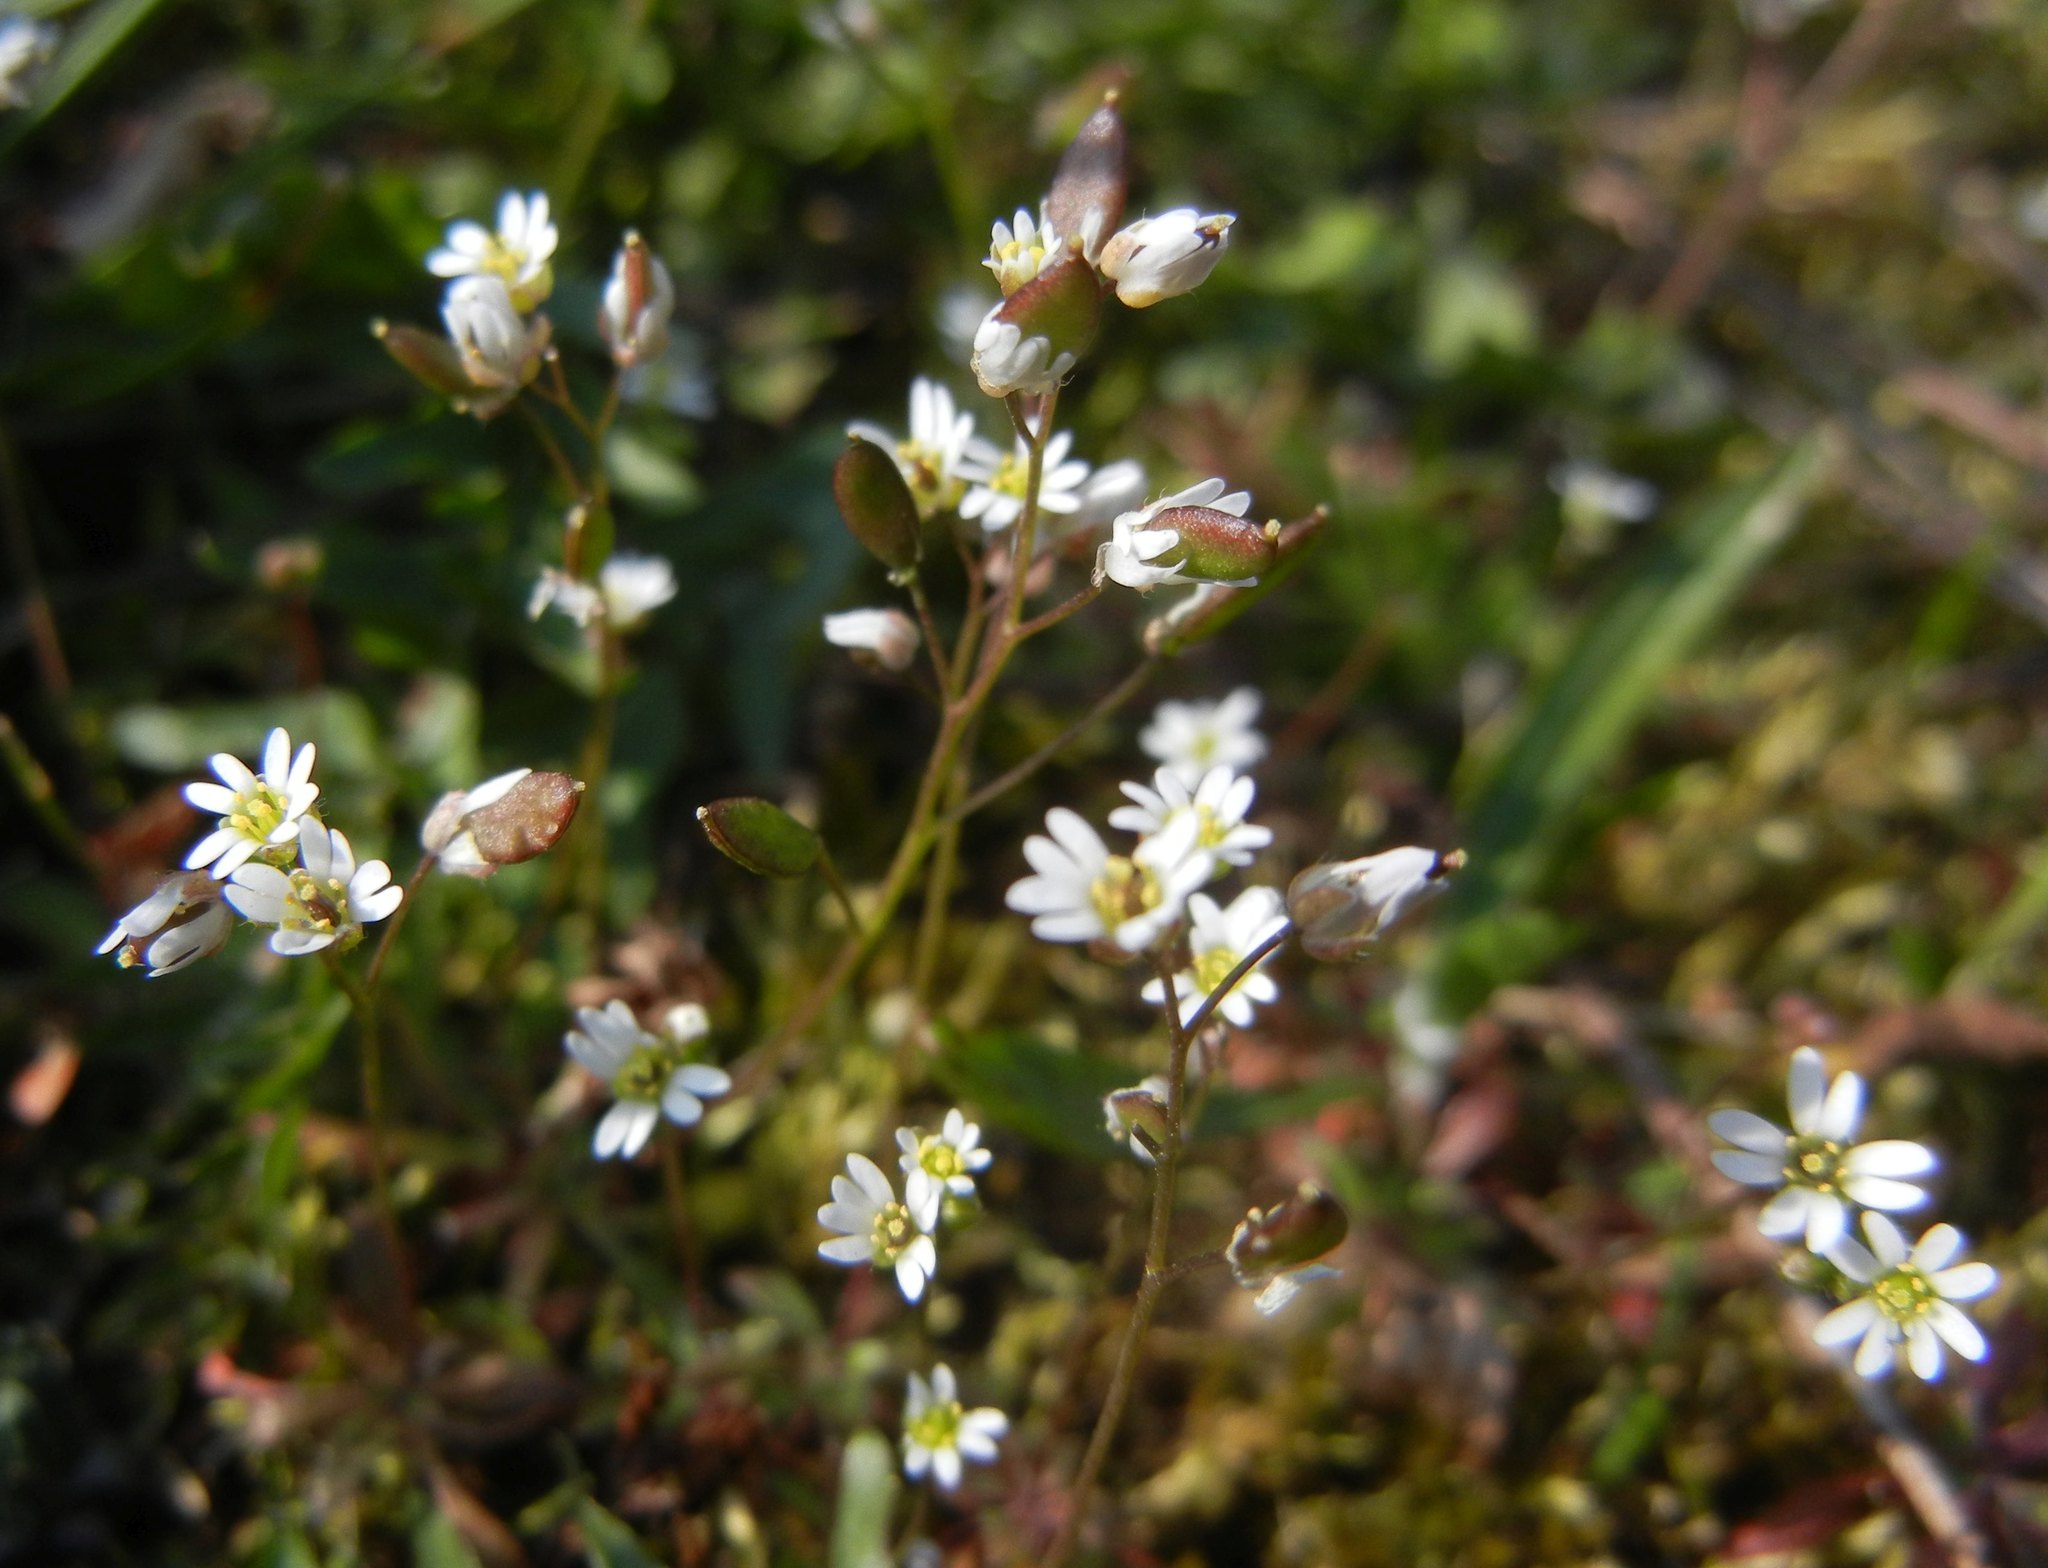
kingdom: Plantae
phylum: Tracheophyta
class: Magnoliopsida
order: Brassicales
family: Brassicaceae
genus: Draba
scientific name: Draba verna
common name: Spring draba
